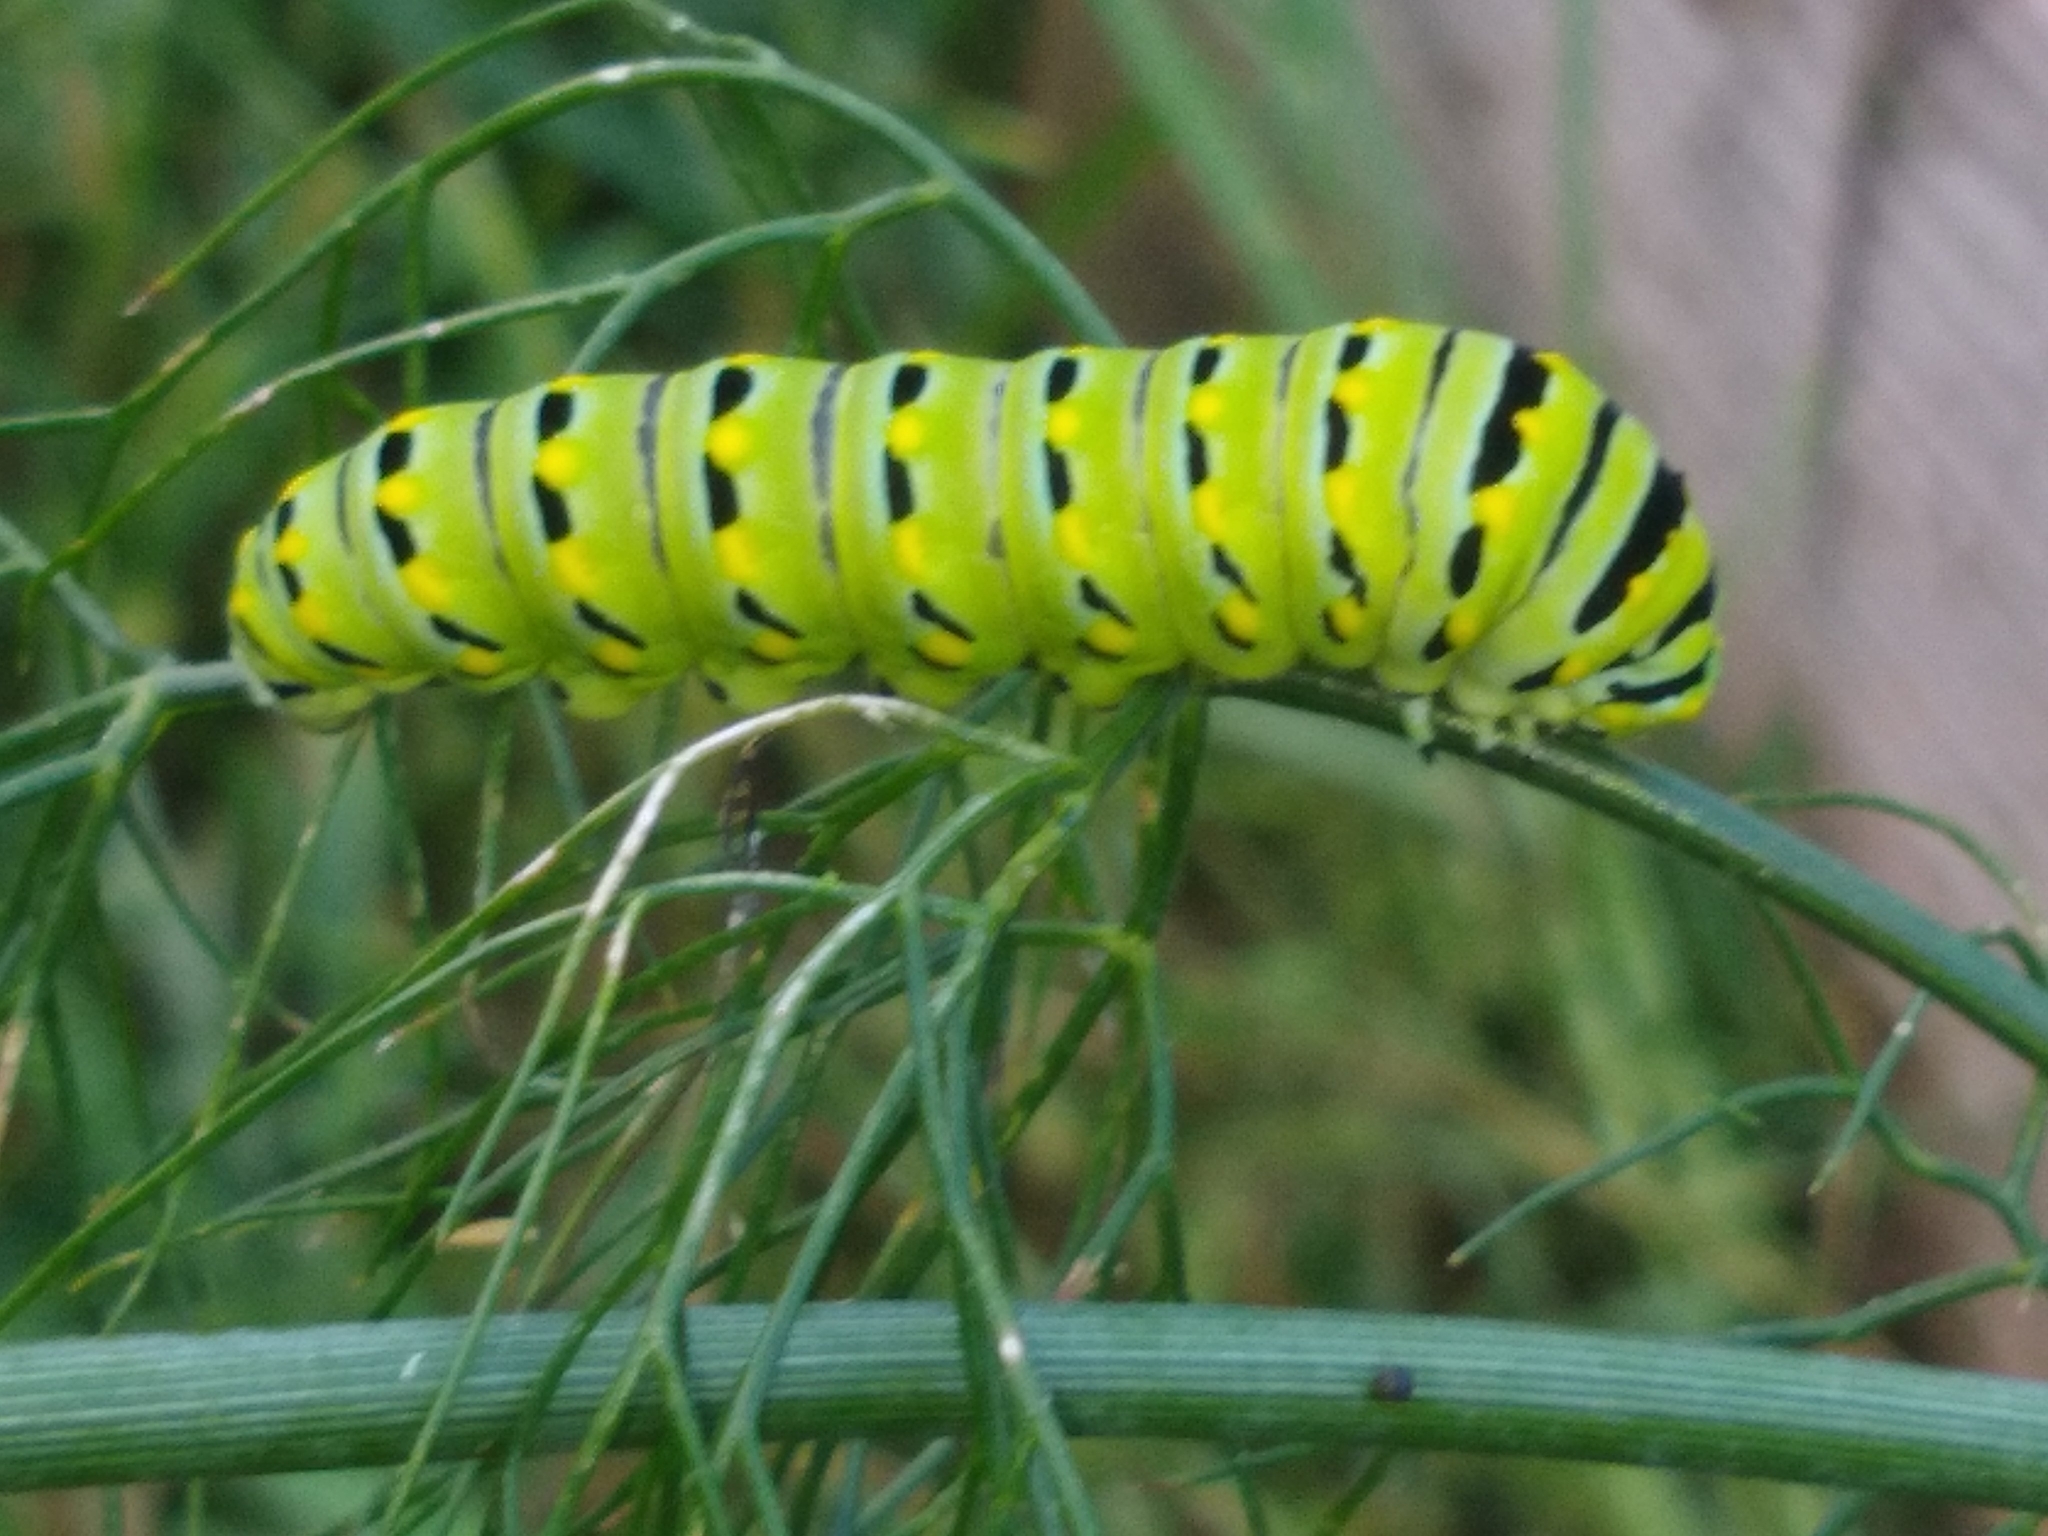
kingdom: Animalia
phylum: Arthropoda
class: Insecta
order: Lepidoptera
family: Papilionidae
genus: Papilio
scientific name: Papilio polyxenes
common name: Black swallowtail
